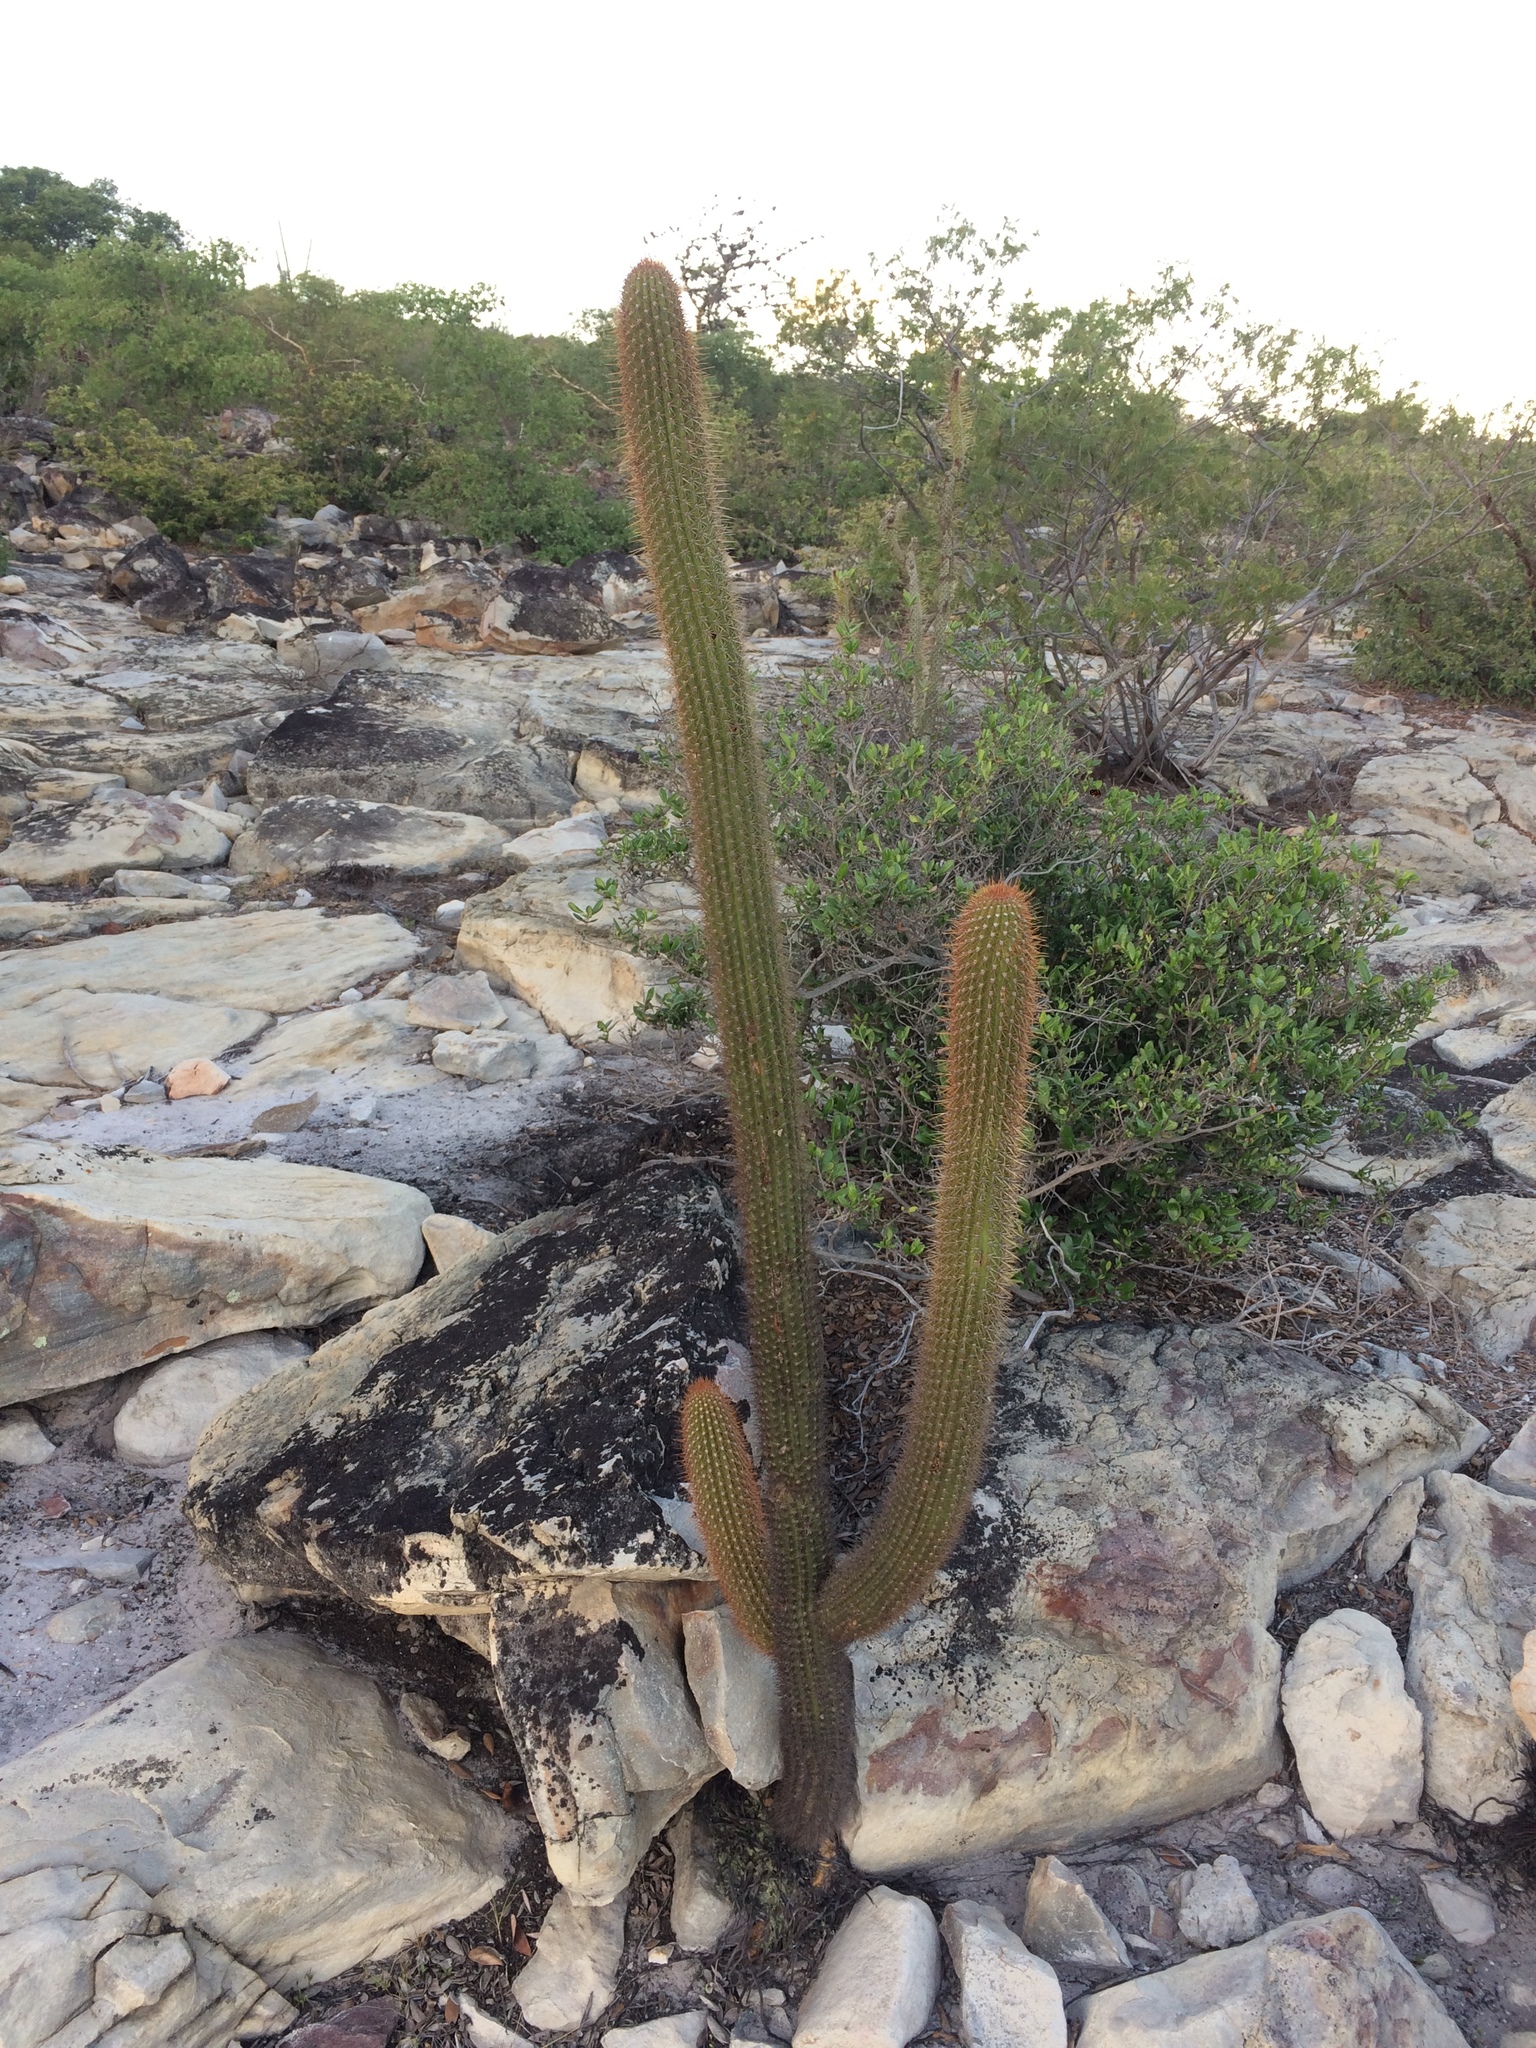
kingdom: Plantae
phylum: Tracheophyta
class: Magnoliopsida
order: Caryophyllales
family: Cactaceae
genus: Facheiroa
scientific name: Facheiroa squamosa
